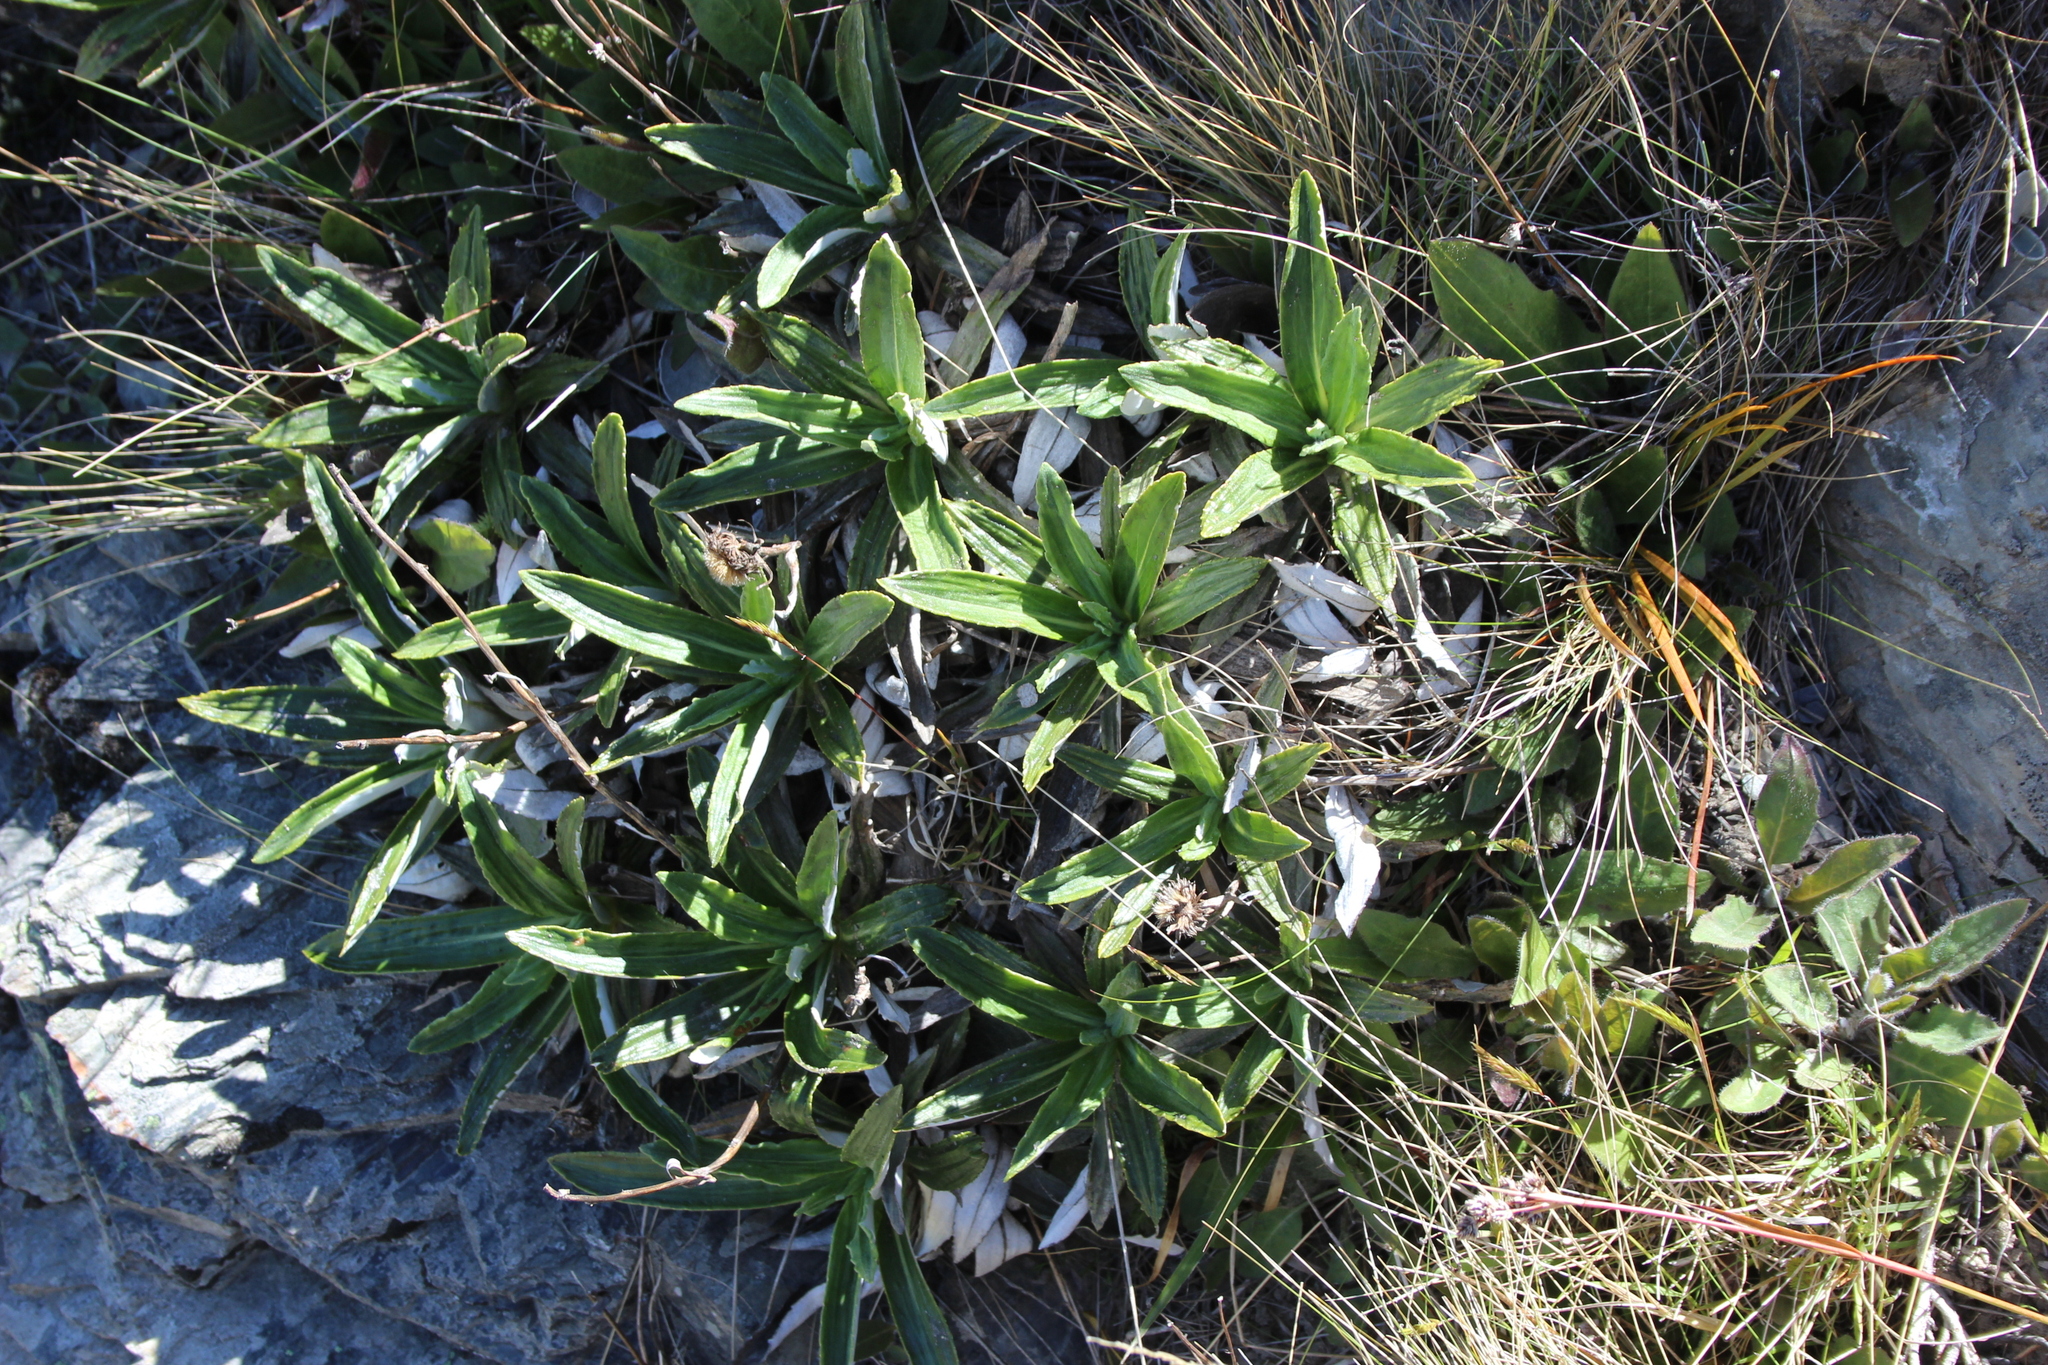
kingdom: Plantae
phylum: Tracheophyta
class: Magnoliopsida
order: Asterales
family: Asteraceae
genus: Celmisia
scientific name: Celmisia densiflora
